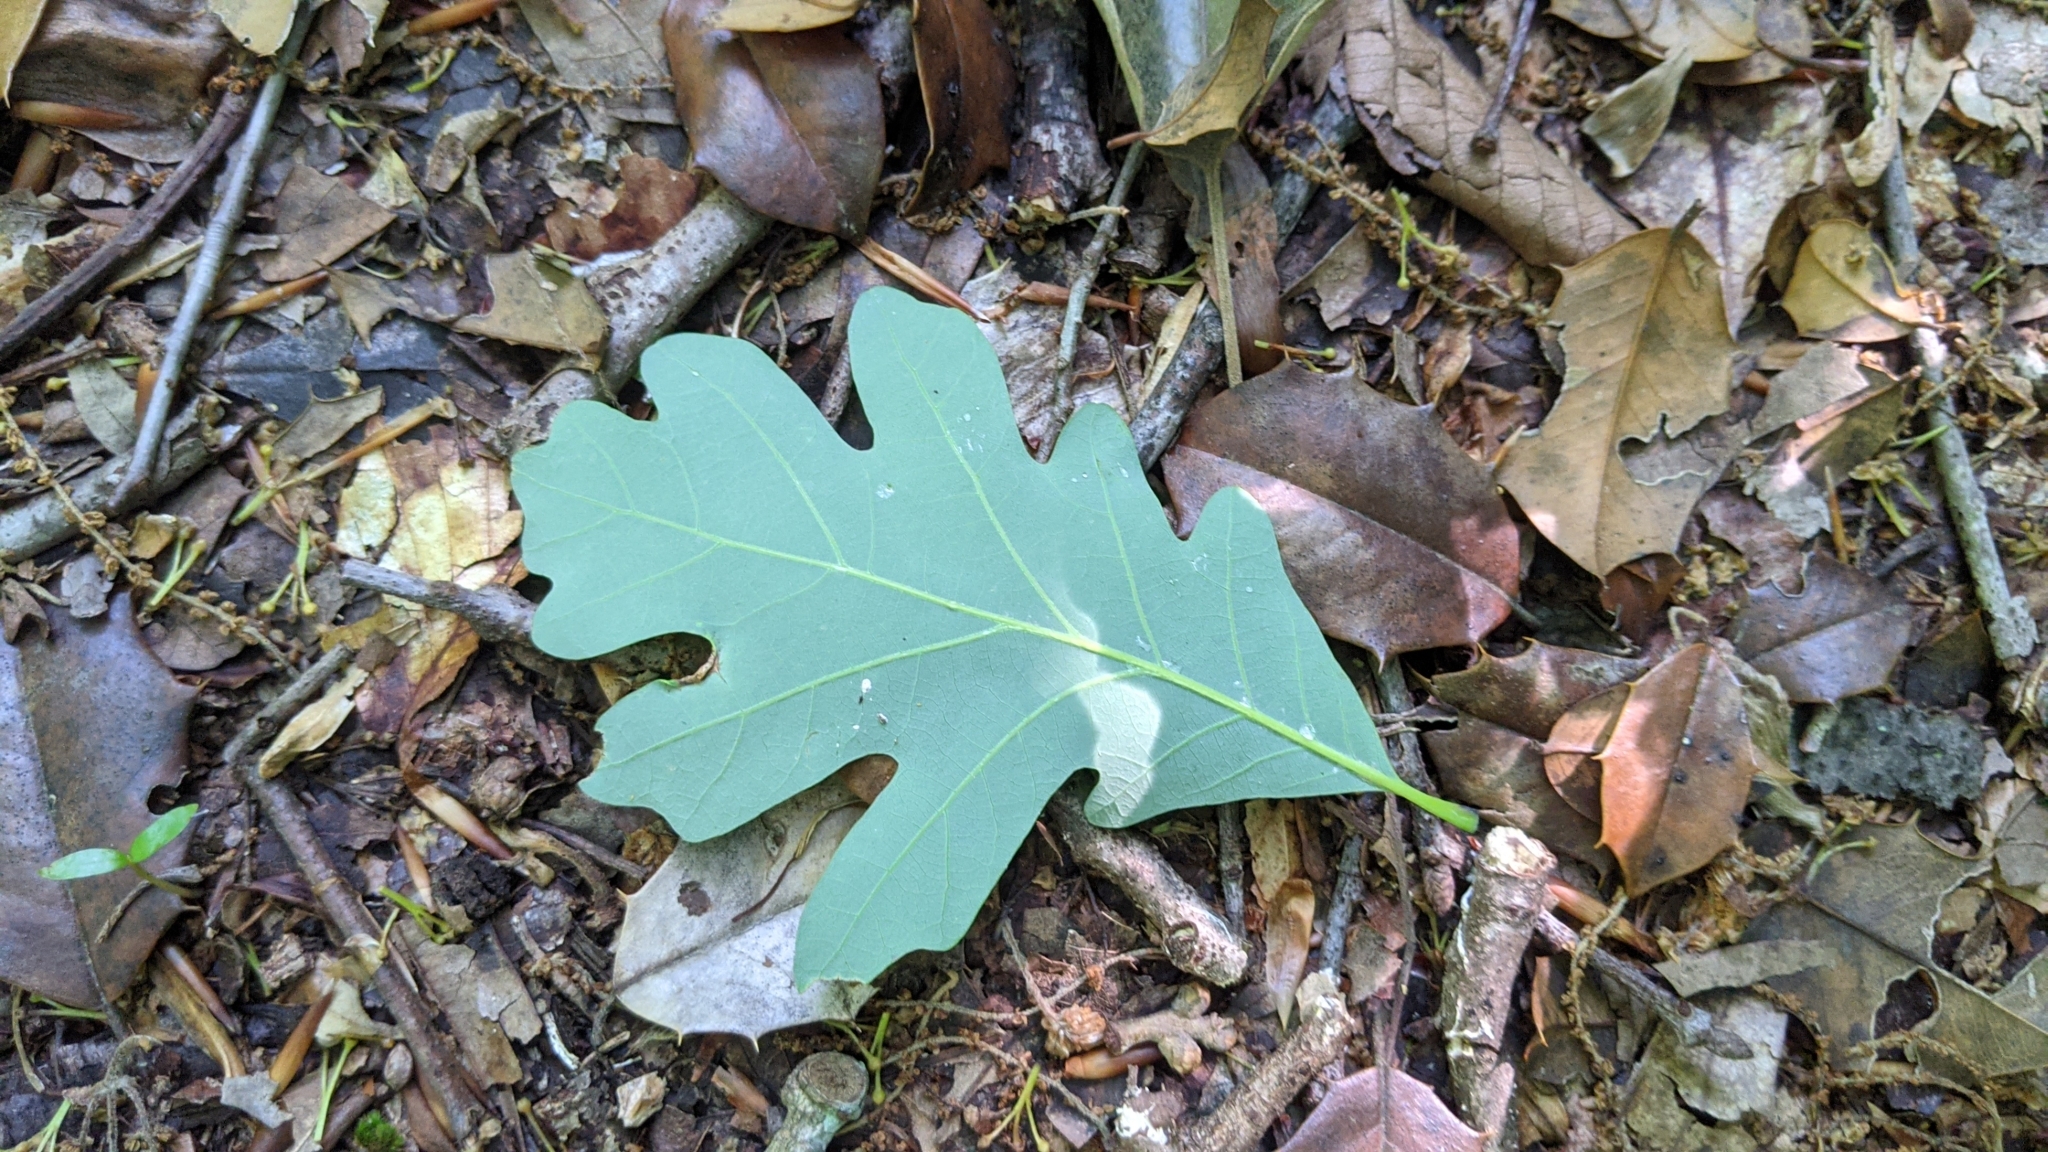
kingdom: Plantae
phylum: Tracheophyta
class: Magnoliopsida
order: Fagales
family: Fagaceae
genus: Quercus
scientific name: Quercus alba
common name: White oak
